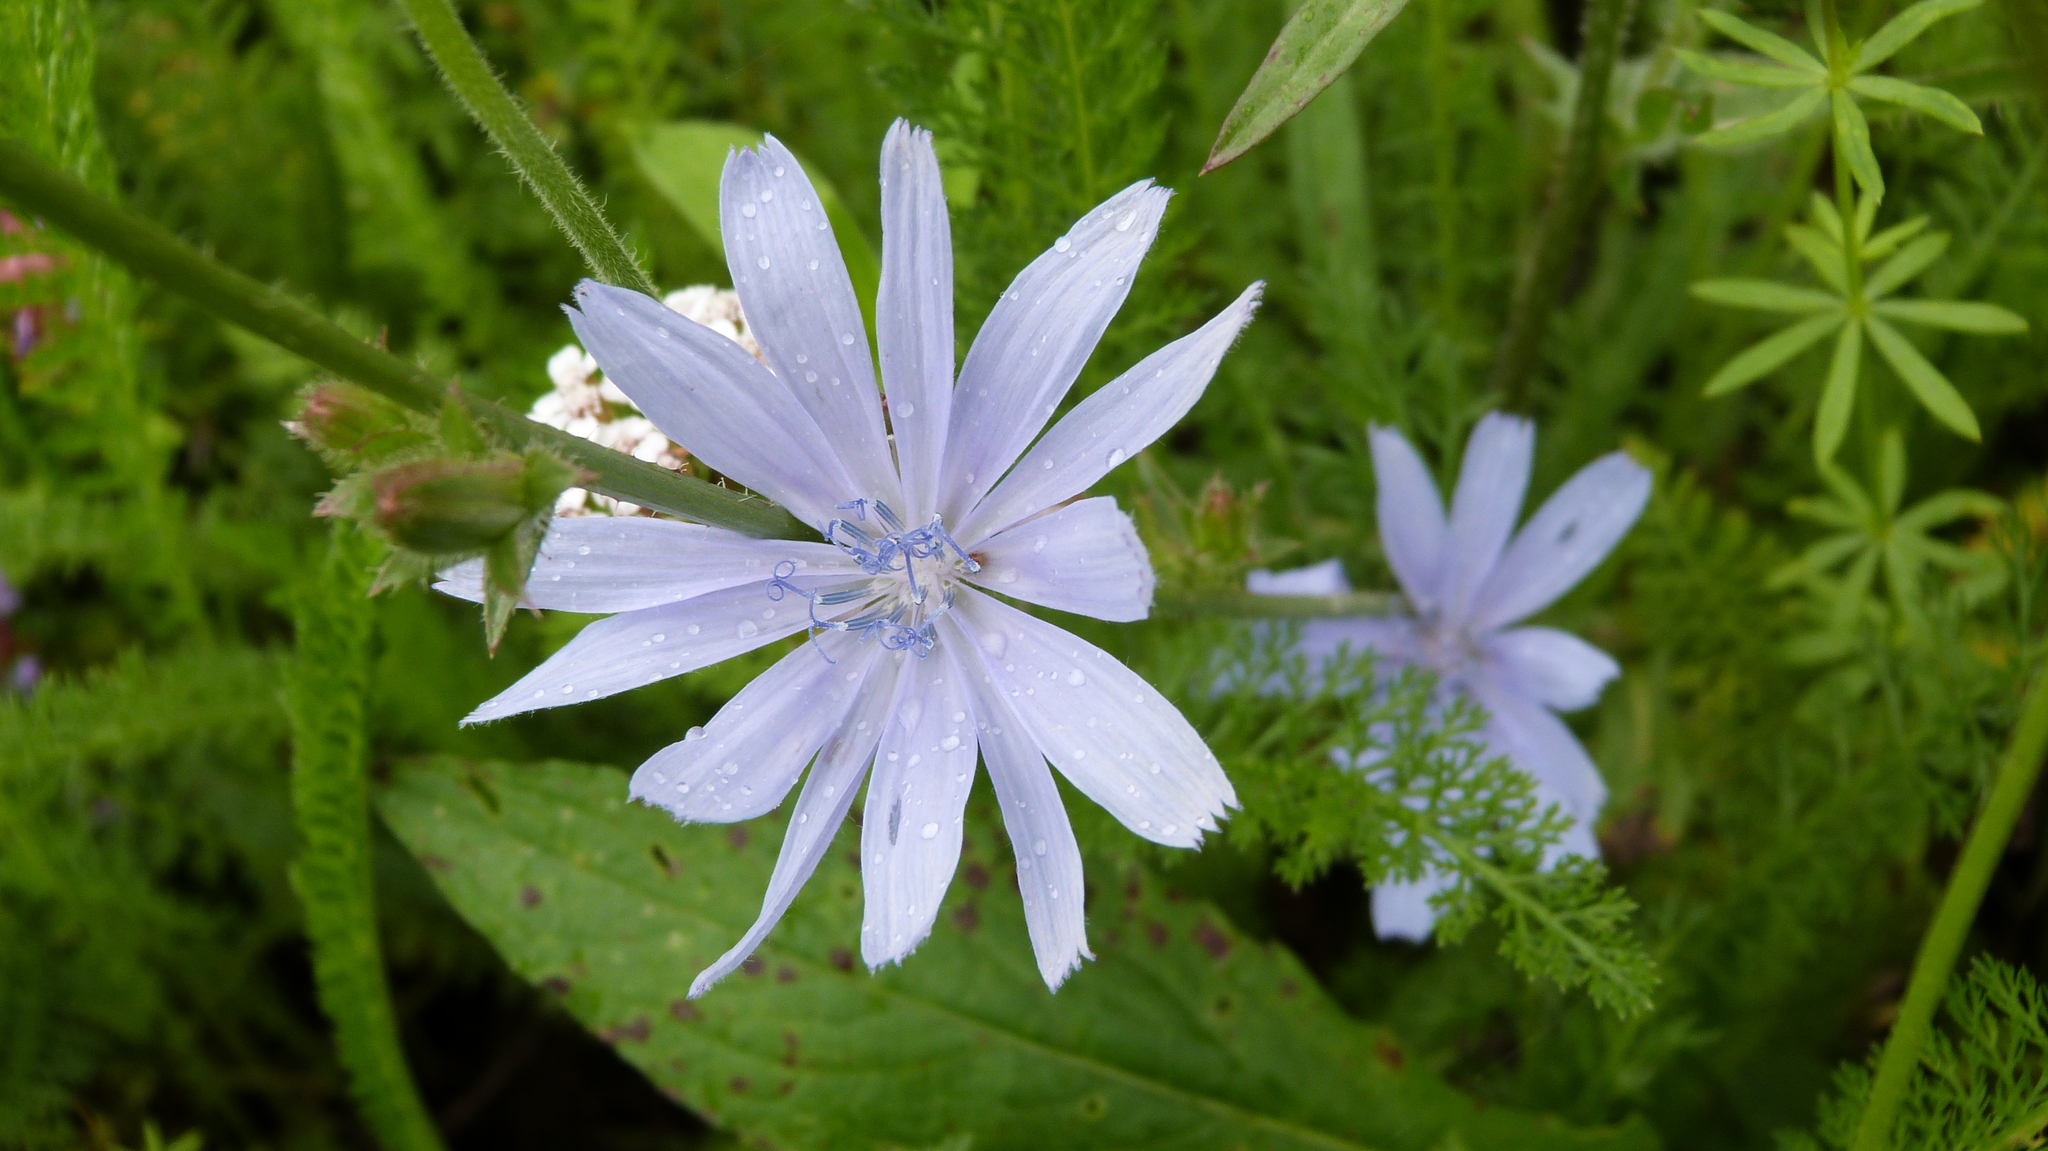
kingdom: Plantae
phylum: Tracheophyta
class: Magnoliopsida
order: Asterales
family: Asteraceae
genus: Cichorium
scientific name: Cichorium intybus
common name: Chicory
